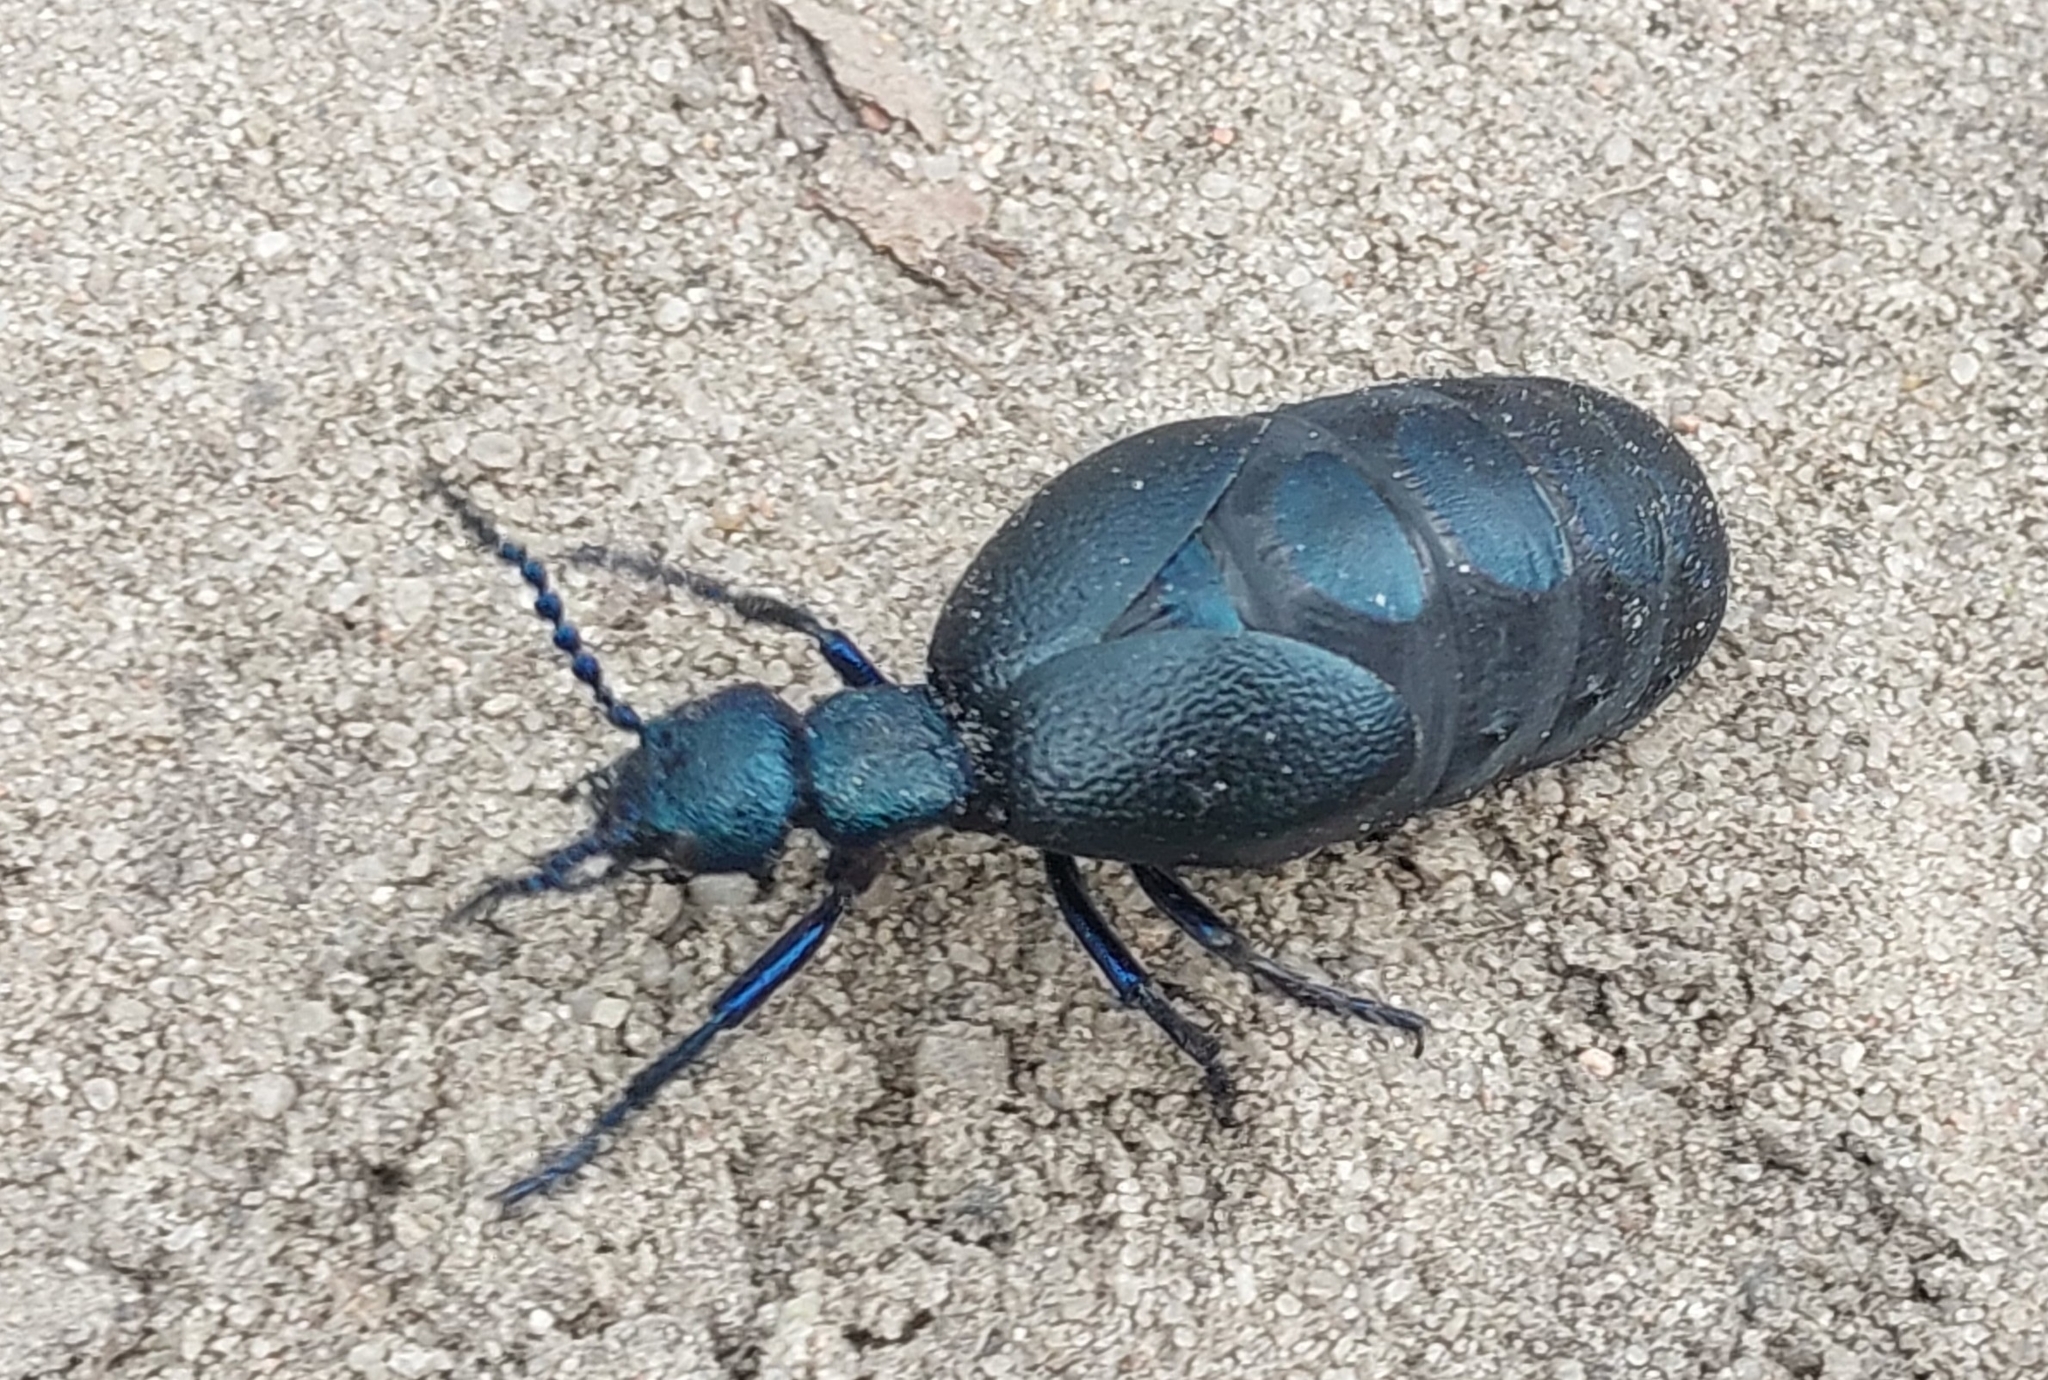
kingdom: Animalia
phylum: Arthropoda
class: Insecta
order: Coleoptera
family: Meloidae
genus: Meloe
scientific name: Meloe violaceus
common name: Violet oil-beetle
